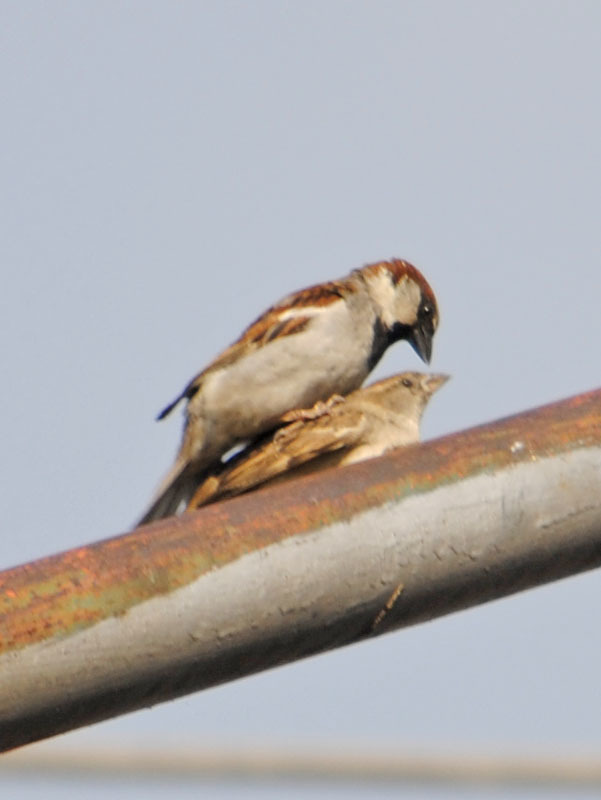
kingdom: Animalia
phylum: Chordata
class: Aves
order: Passeriformes
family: Passeridae
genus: Passer
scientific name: Passer domesticus
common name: House sparrow
